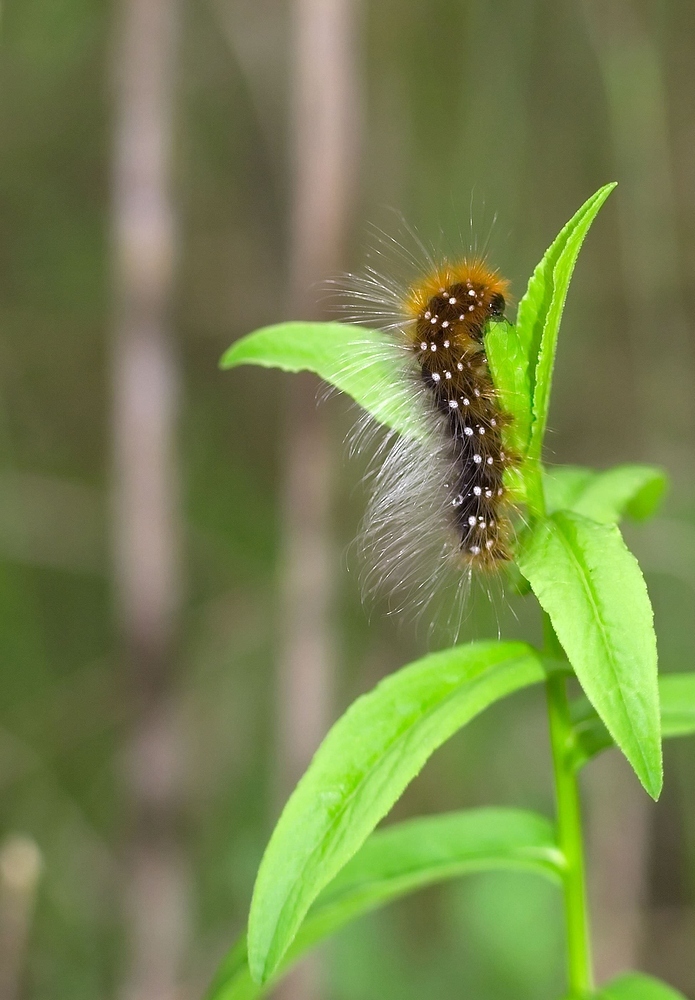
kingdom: Animalia
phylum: Arthropoda
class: Insecta
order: Lepidoptera
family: Erebidae
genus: Arctia
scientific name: Arctia caja
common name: Garden tiger
